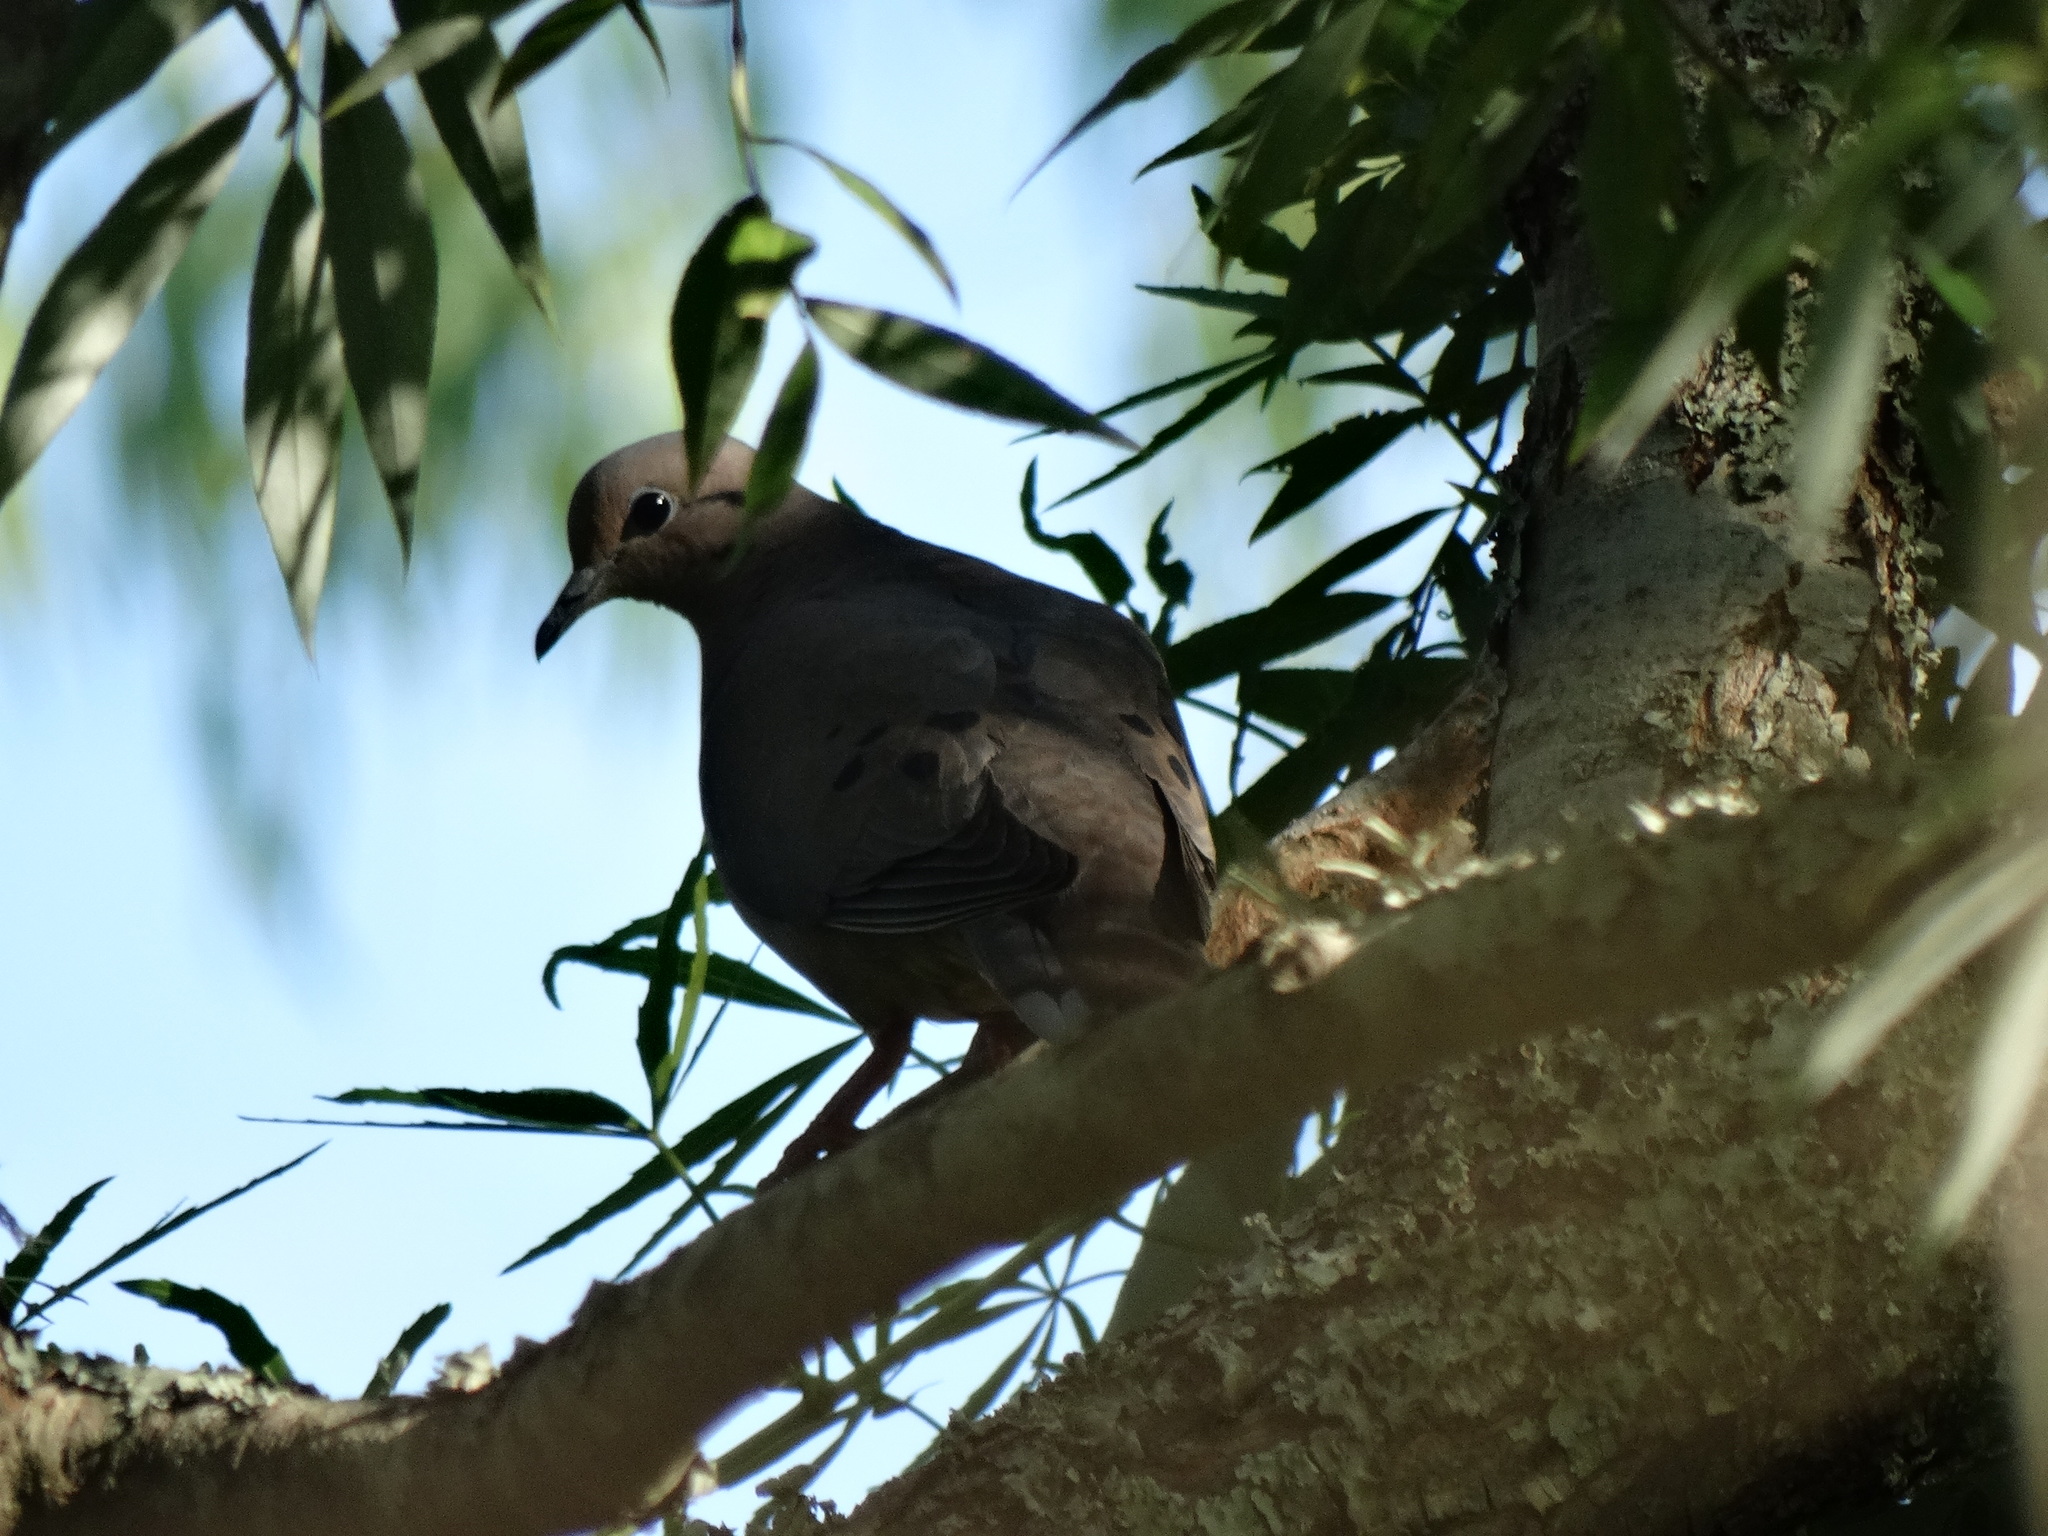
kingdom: Animalia
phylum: Chordata
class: Aves
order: Columbiformes
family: Columbidae
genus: Zenaida
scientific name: Zenaida auriculata
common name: Eared dove
